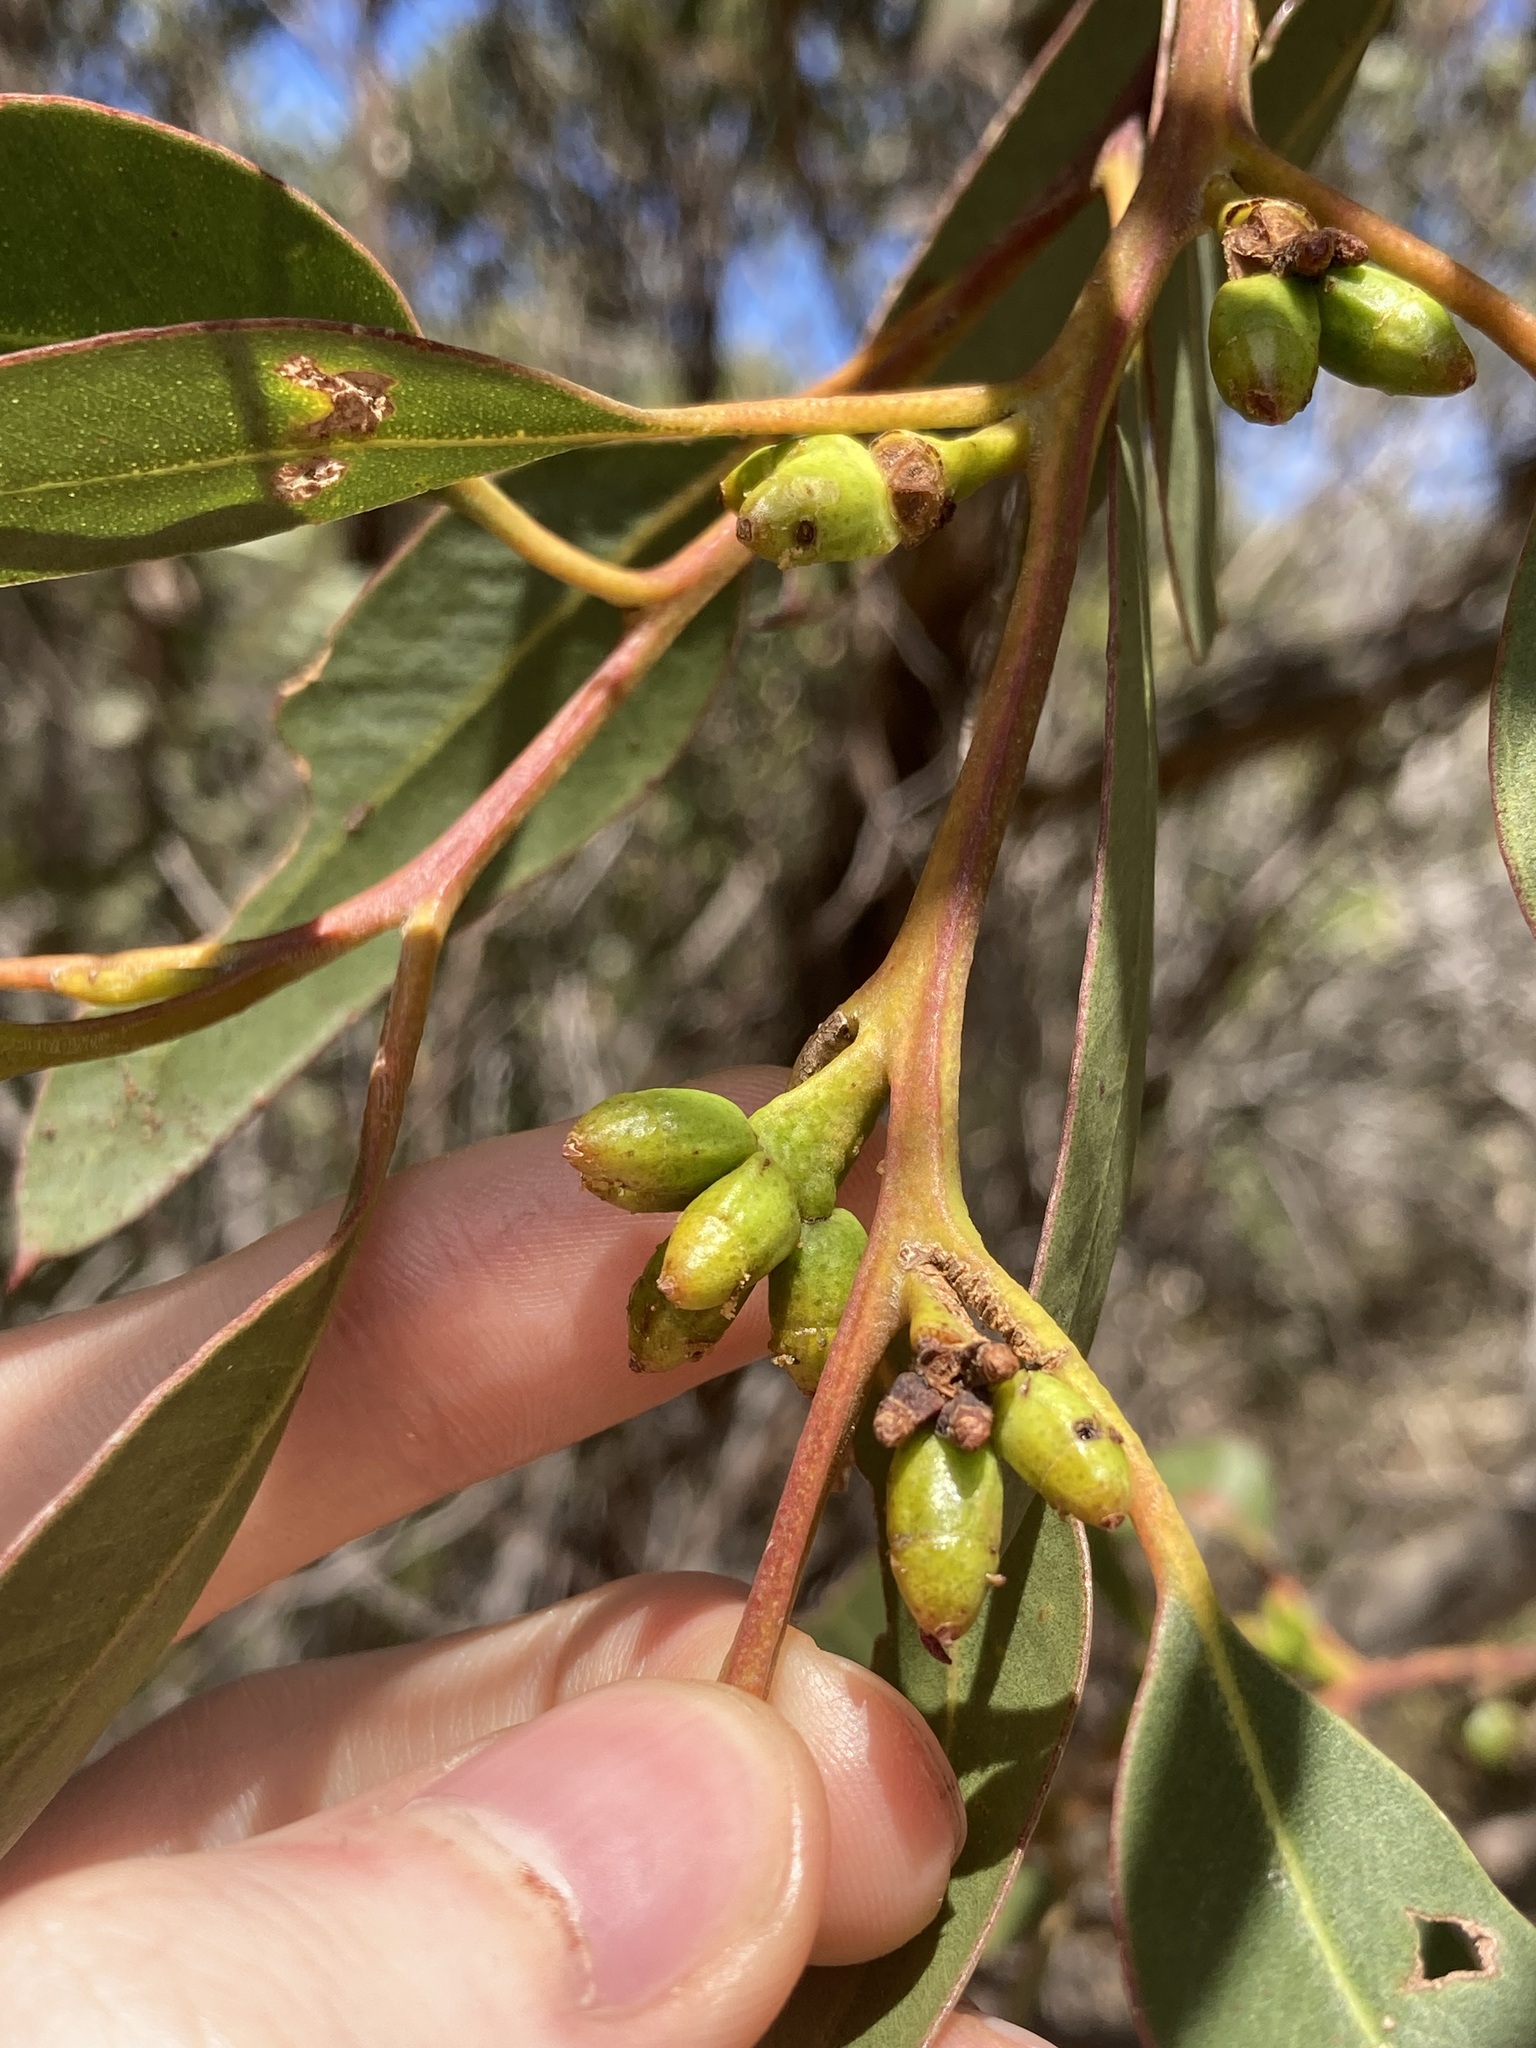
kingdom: Plantae
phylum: Tracheophyta
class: Magnoliopsida
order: Myrtales
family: Myrtaceae
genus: Eucalyptus
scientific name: Eucalyptus conglobata
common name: Port lincoln mallee
